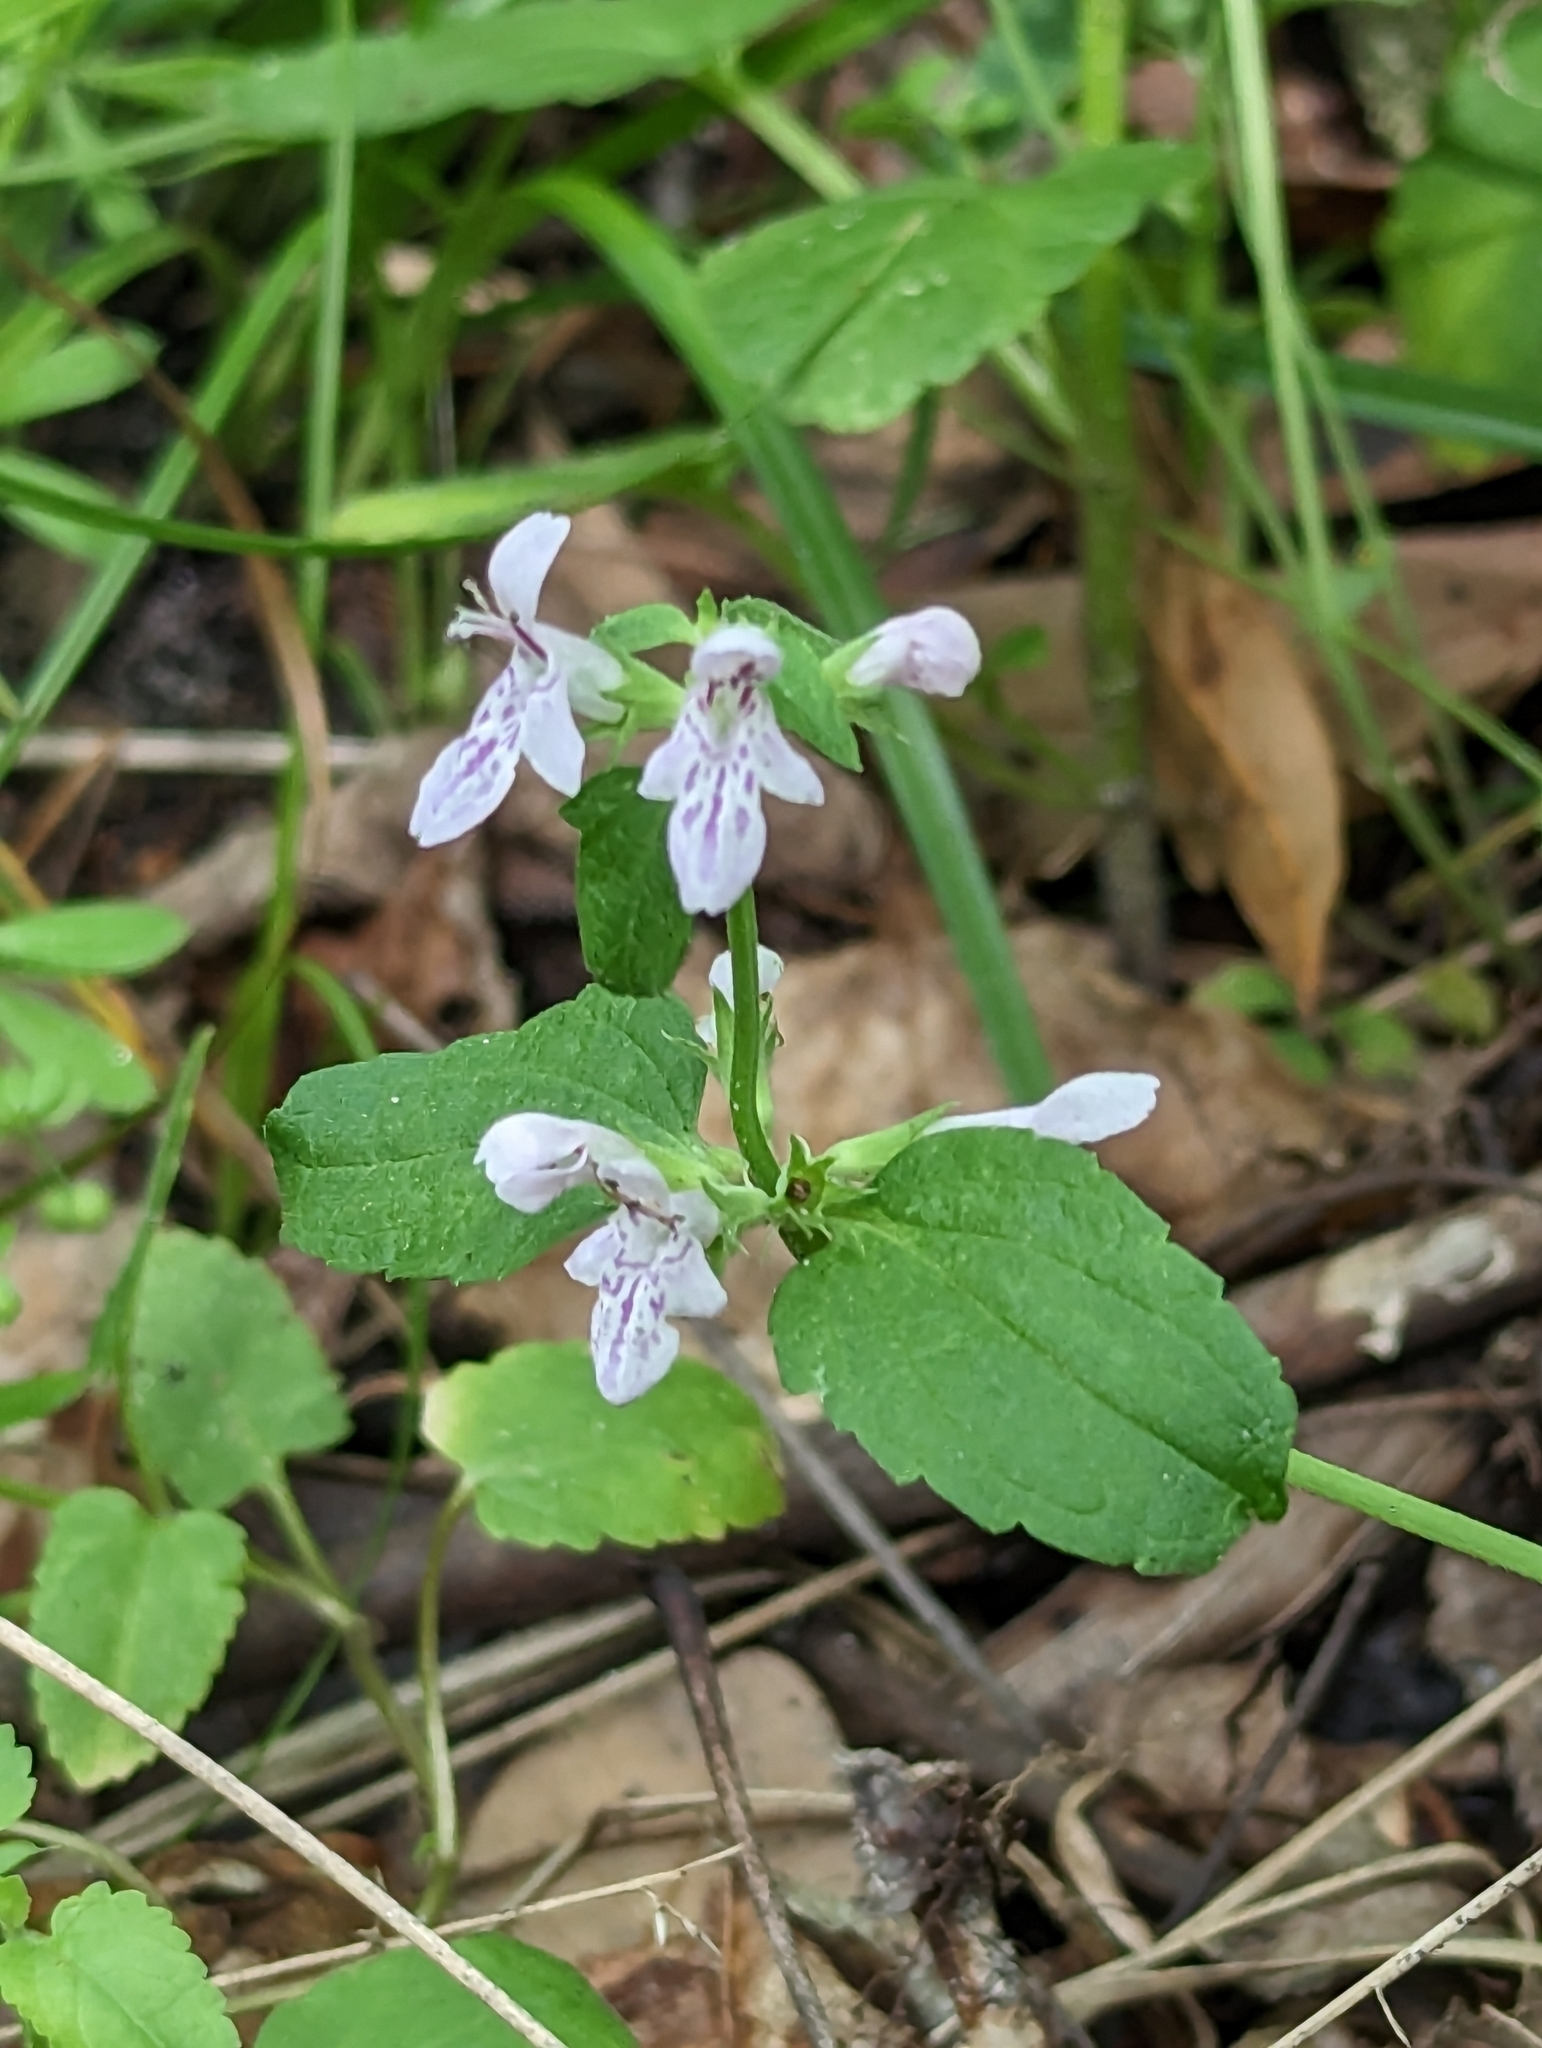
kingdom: Plantae
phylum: Tracheophyta
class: Magnoliopsida
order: Lamiales
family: Lamiaceae
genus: Stachys
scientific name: Stachys floridana
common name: Florida betony
